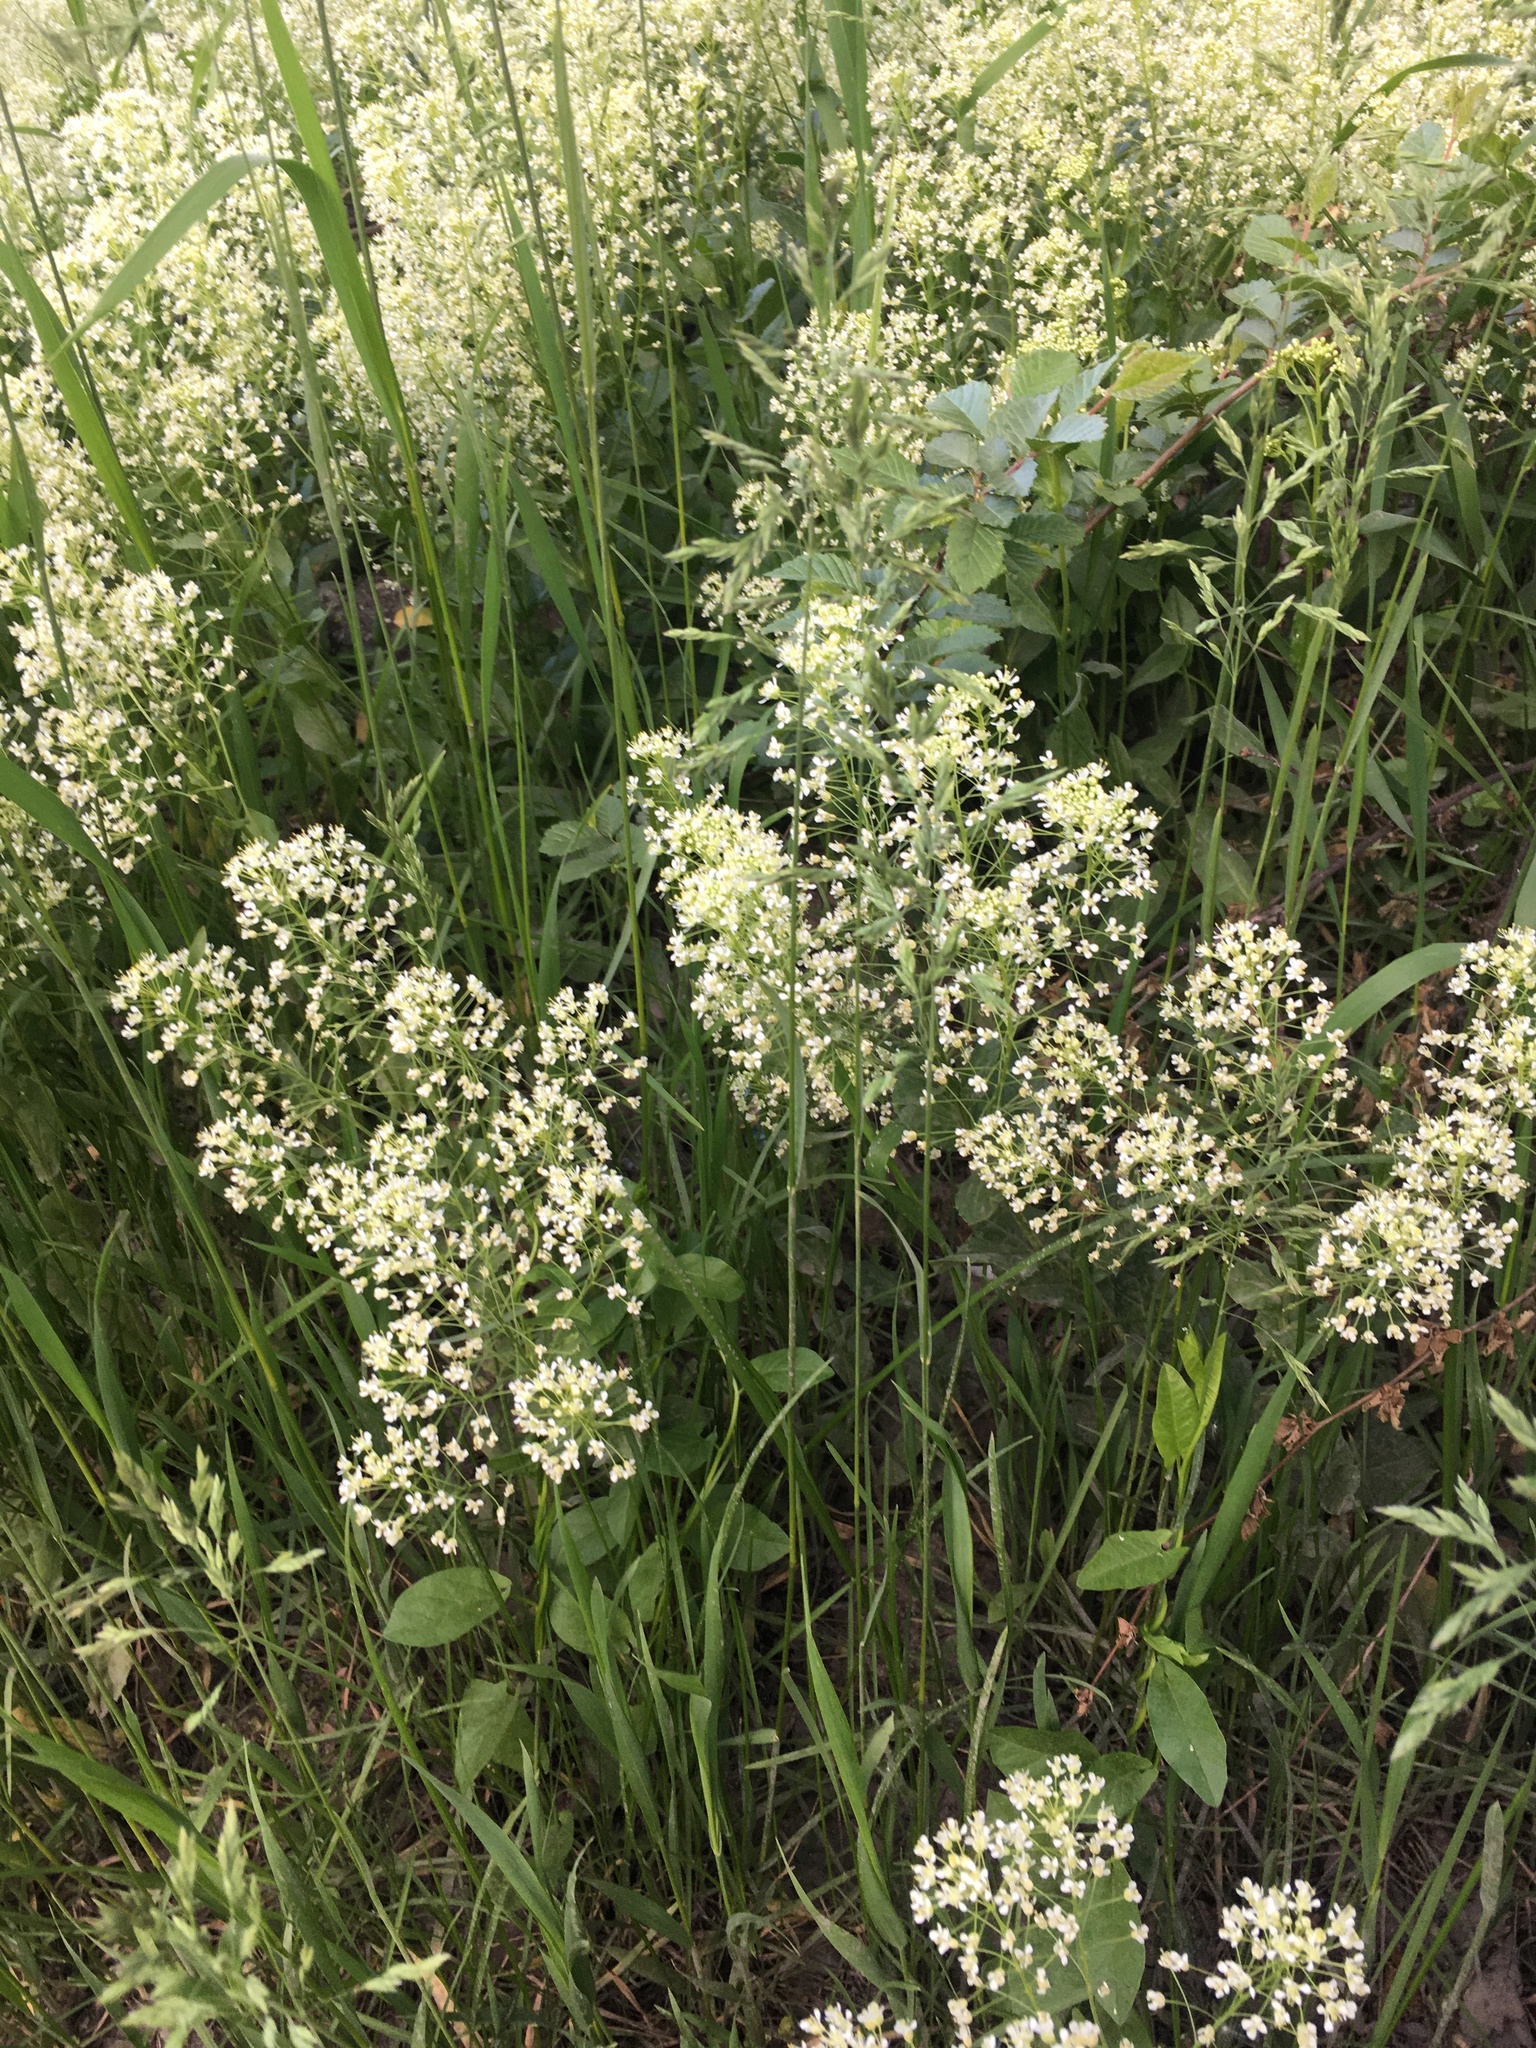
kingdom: Plantae
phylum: Tracheophyta
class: Magnoliopsida
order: Brassicales
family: Brassicaceae
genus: Lepidium
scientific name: Lepidium draba
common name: Hoary cress
